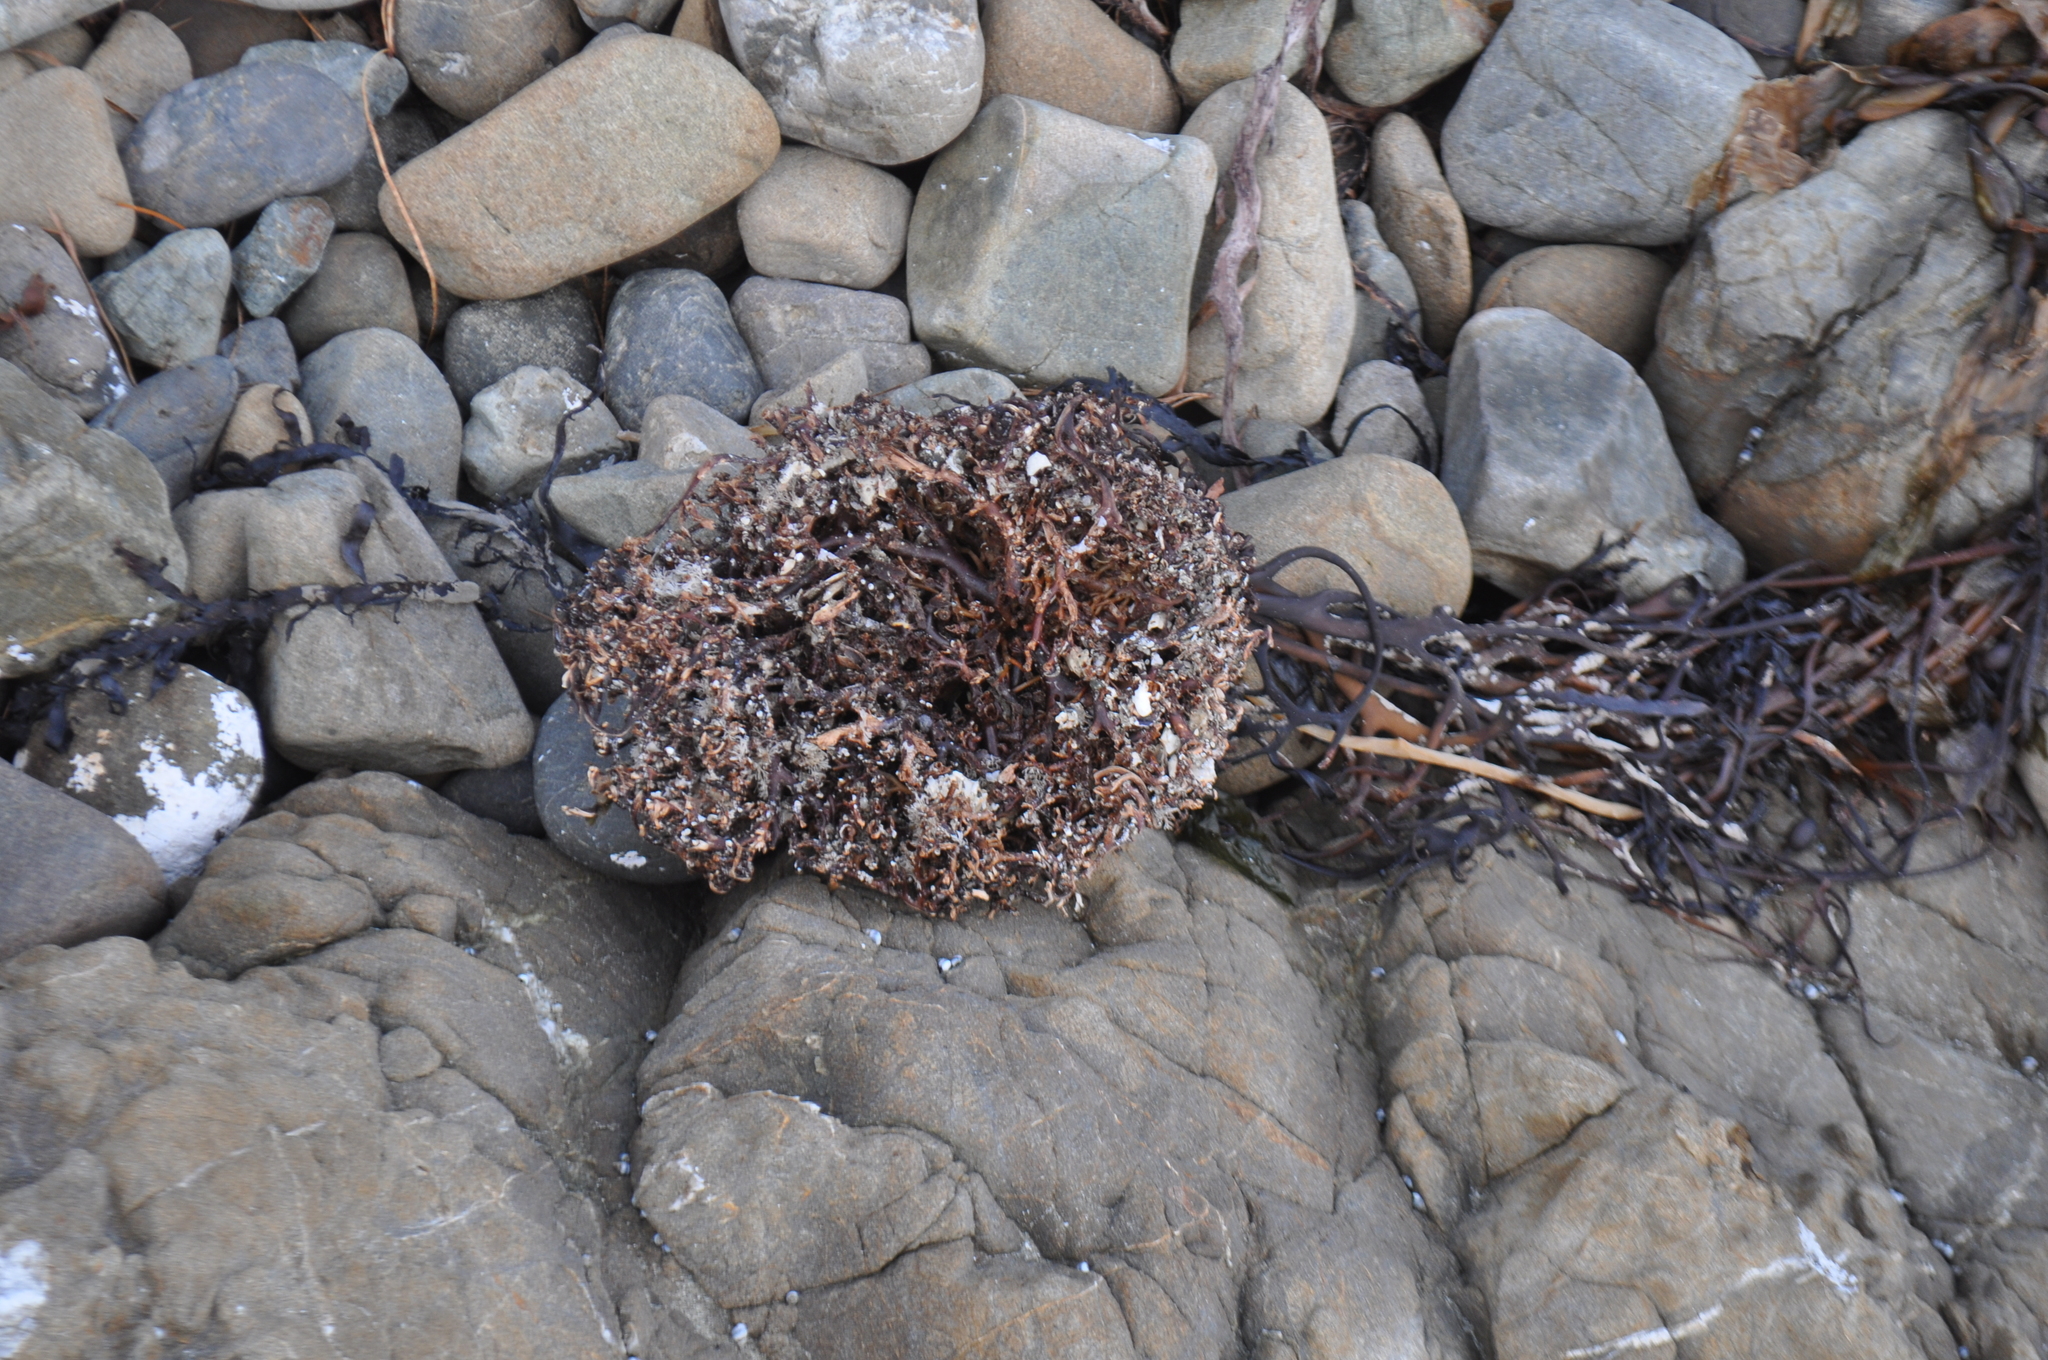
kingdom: Chromista
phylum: Ochrophyta
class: Phaeophyceae
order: Laminariales
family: Laminariaceae
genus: Macrocystis
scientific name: Macrocystis pyrifera
